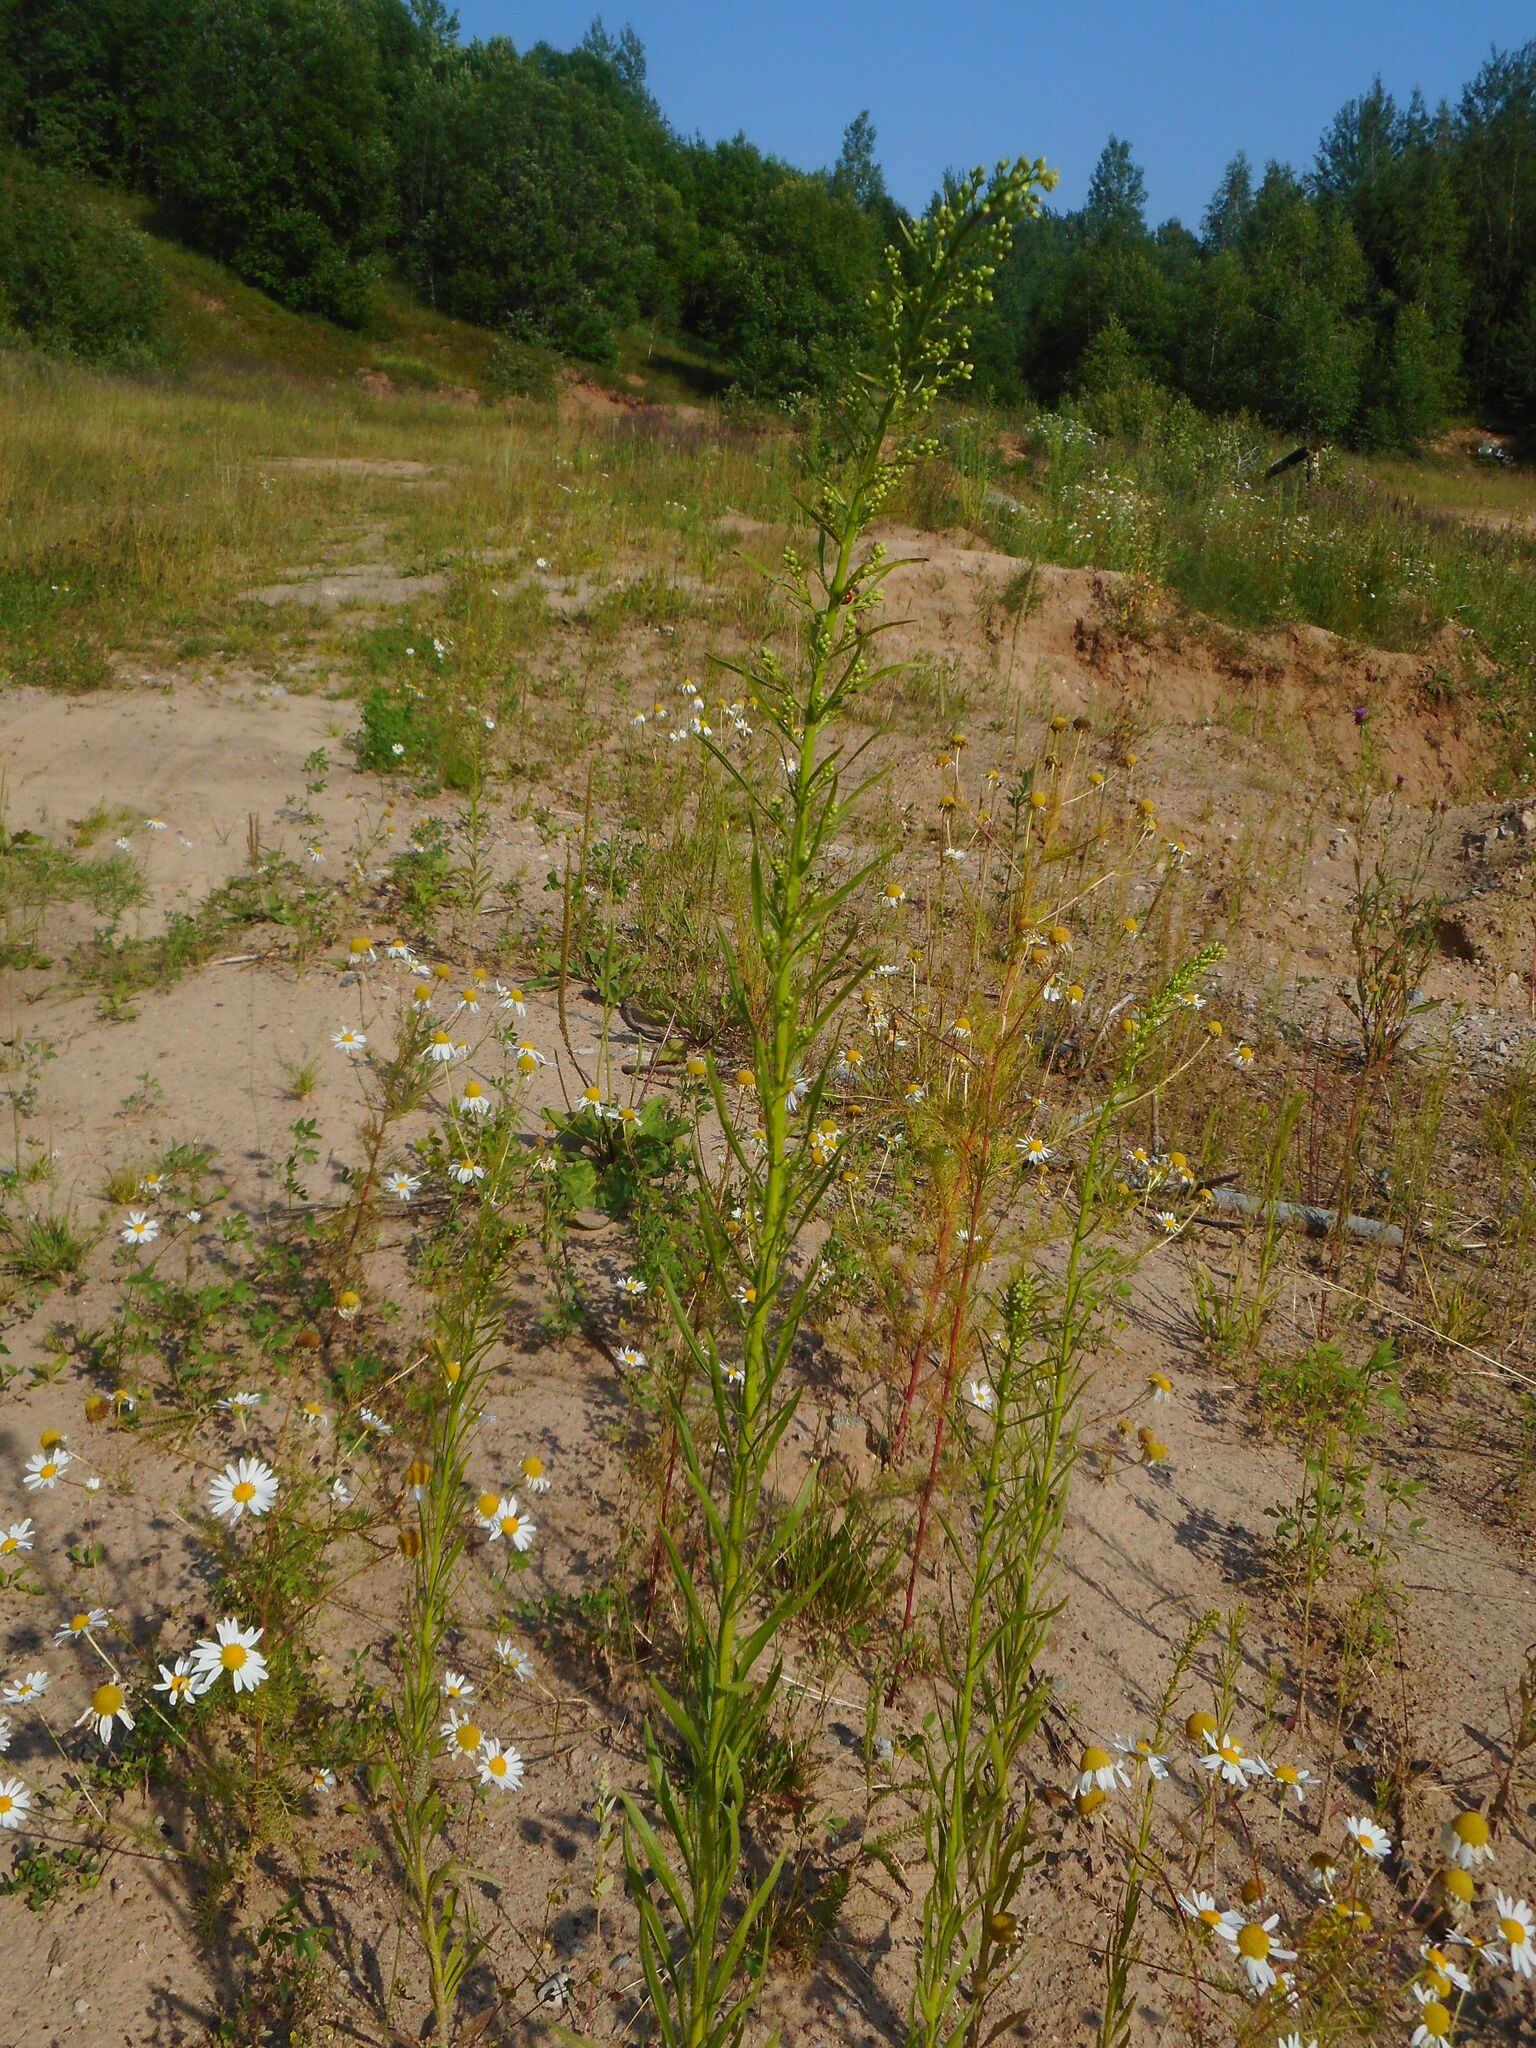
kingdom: Plantae
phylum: Tracheophyta
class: Magnoliopsida
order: Asterales
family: Asteraceae
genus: Erigeron
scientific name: Erigeron canadensis
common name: Canadian fleabane
